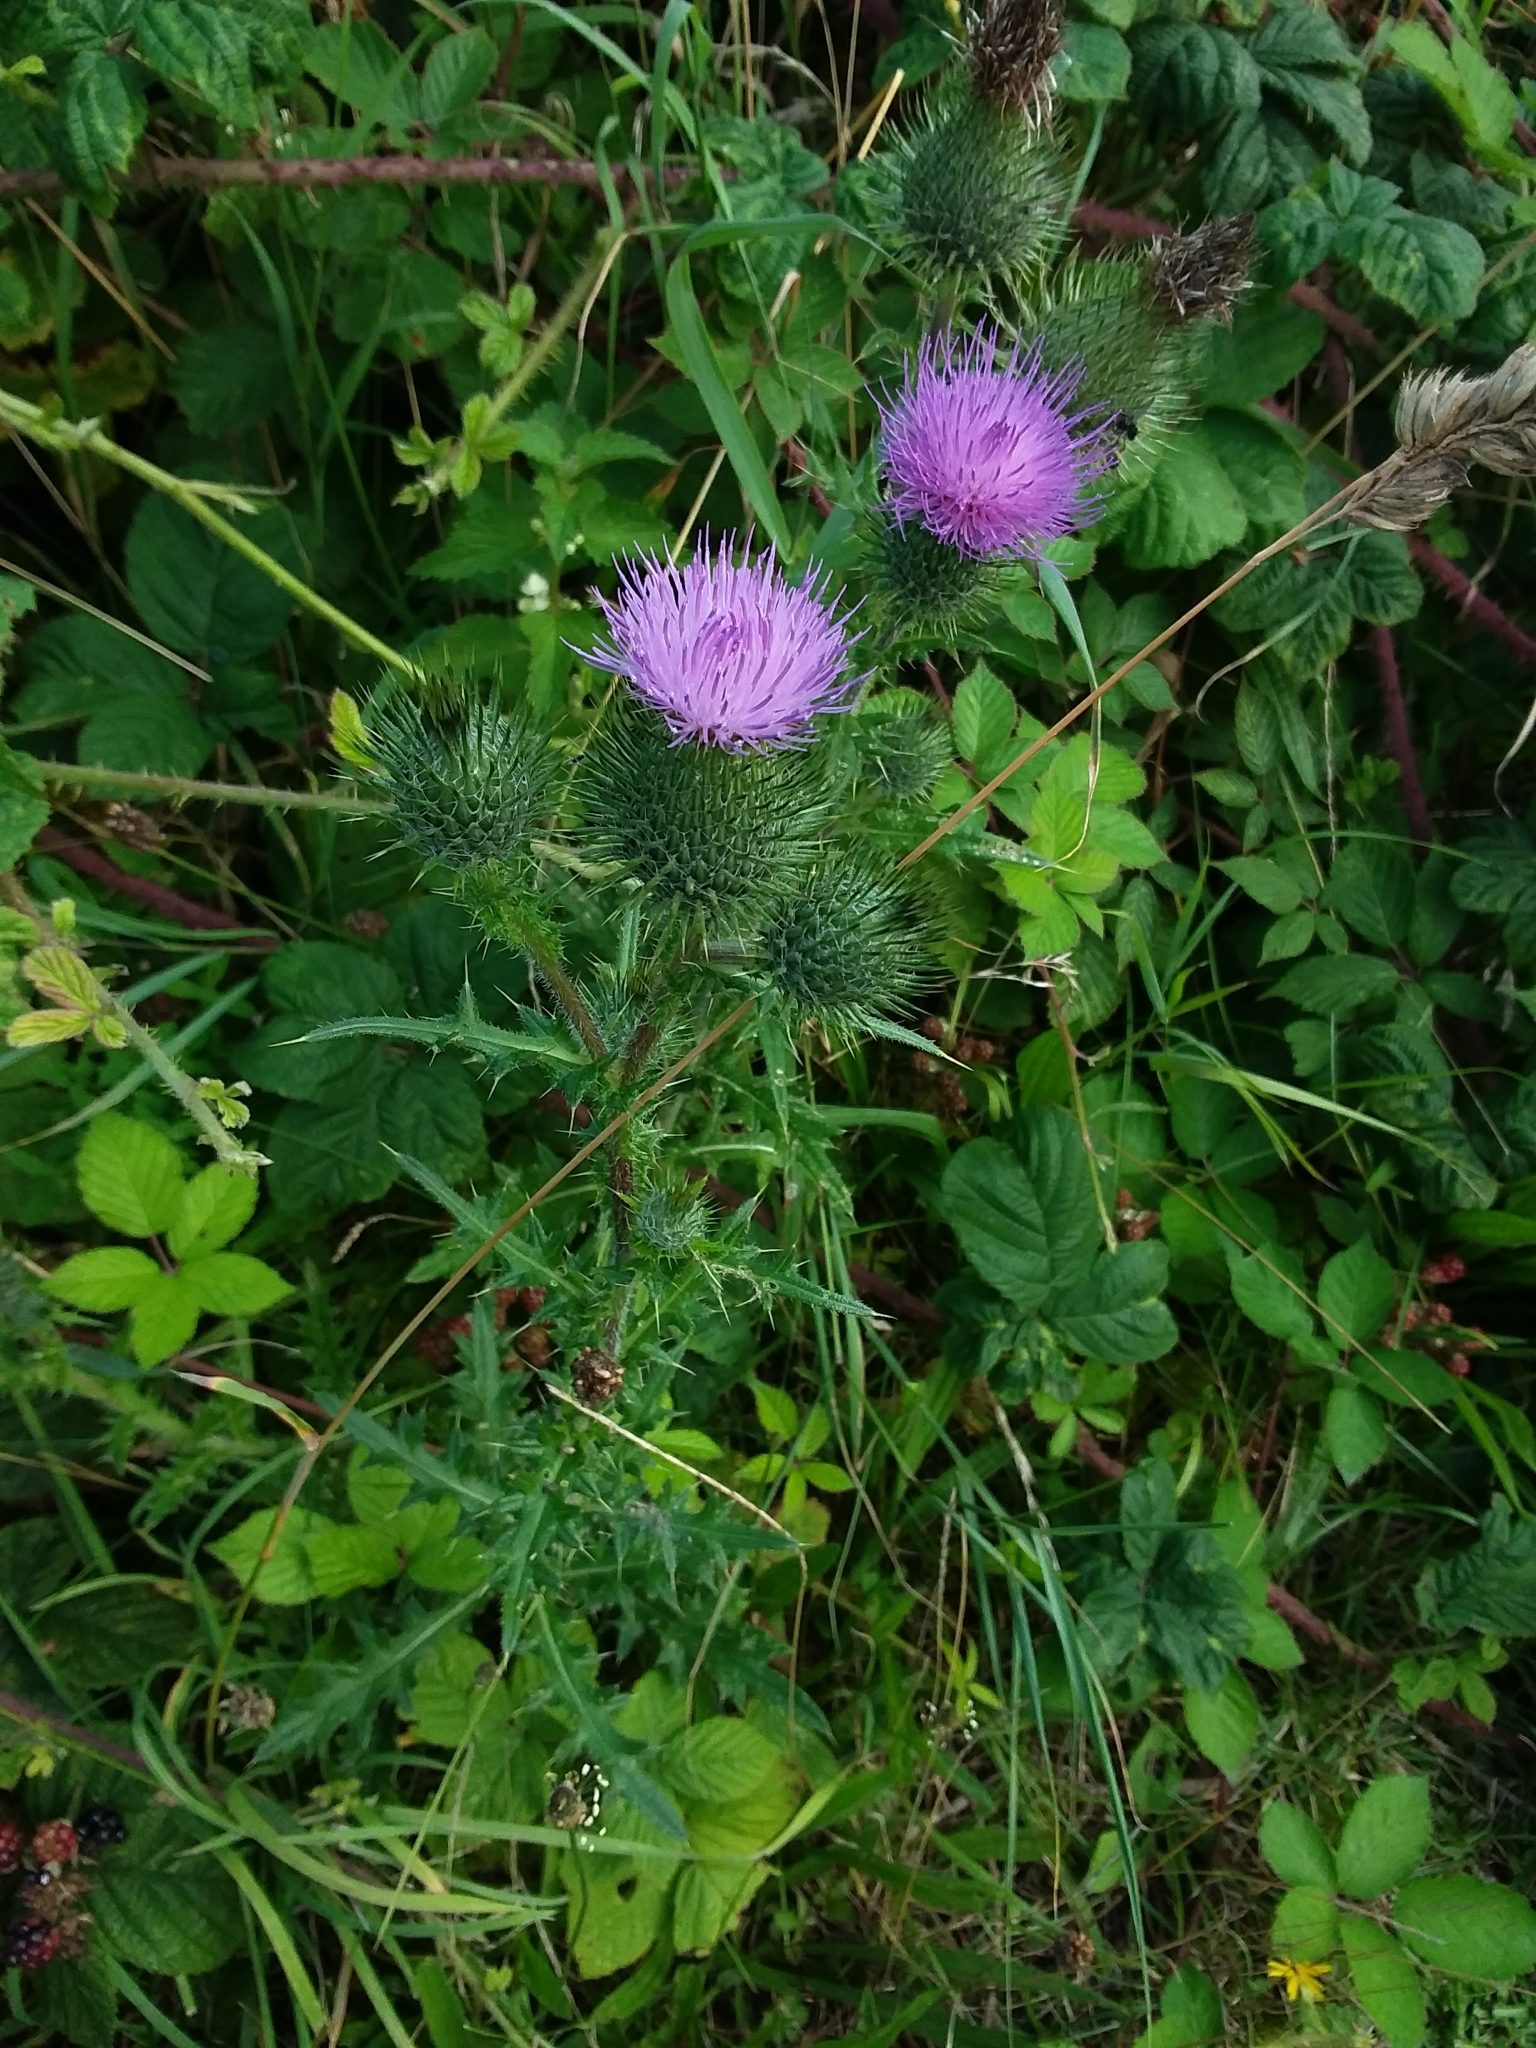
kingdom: Plantae
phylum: Tracheophyta
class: Magnoliopsida
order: Asterales
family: Asteraceae
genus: Cirsium
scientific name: Cirsium vulgare
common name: Bull thistle
